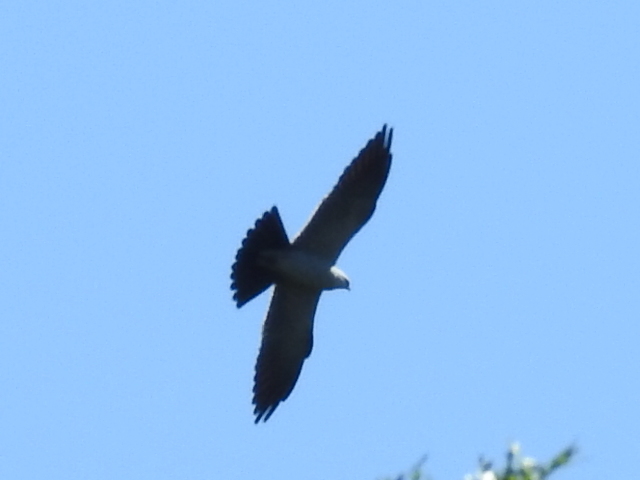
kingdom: Animalia
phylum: Chordata
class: Aves
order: Accipitriformes
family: Accipitridae
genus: Ictinia
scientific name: Ictinia mississippiensis
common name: Mississippi kite
